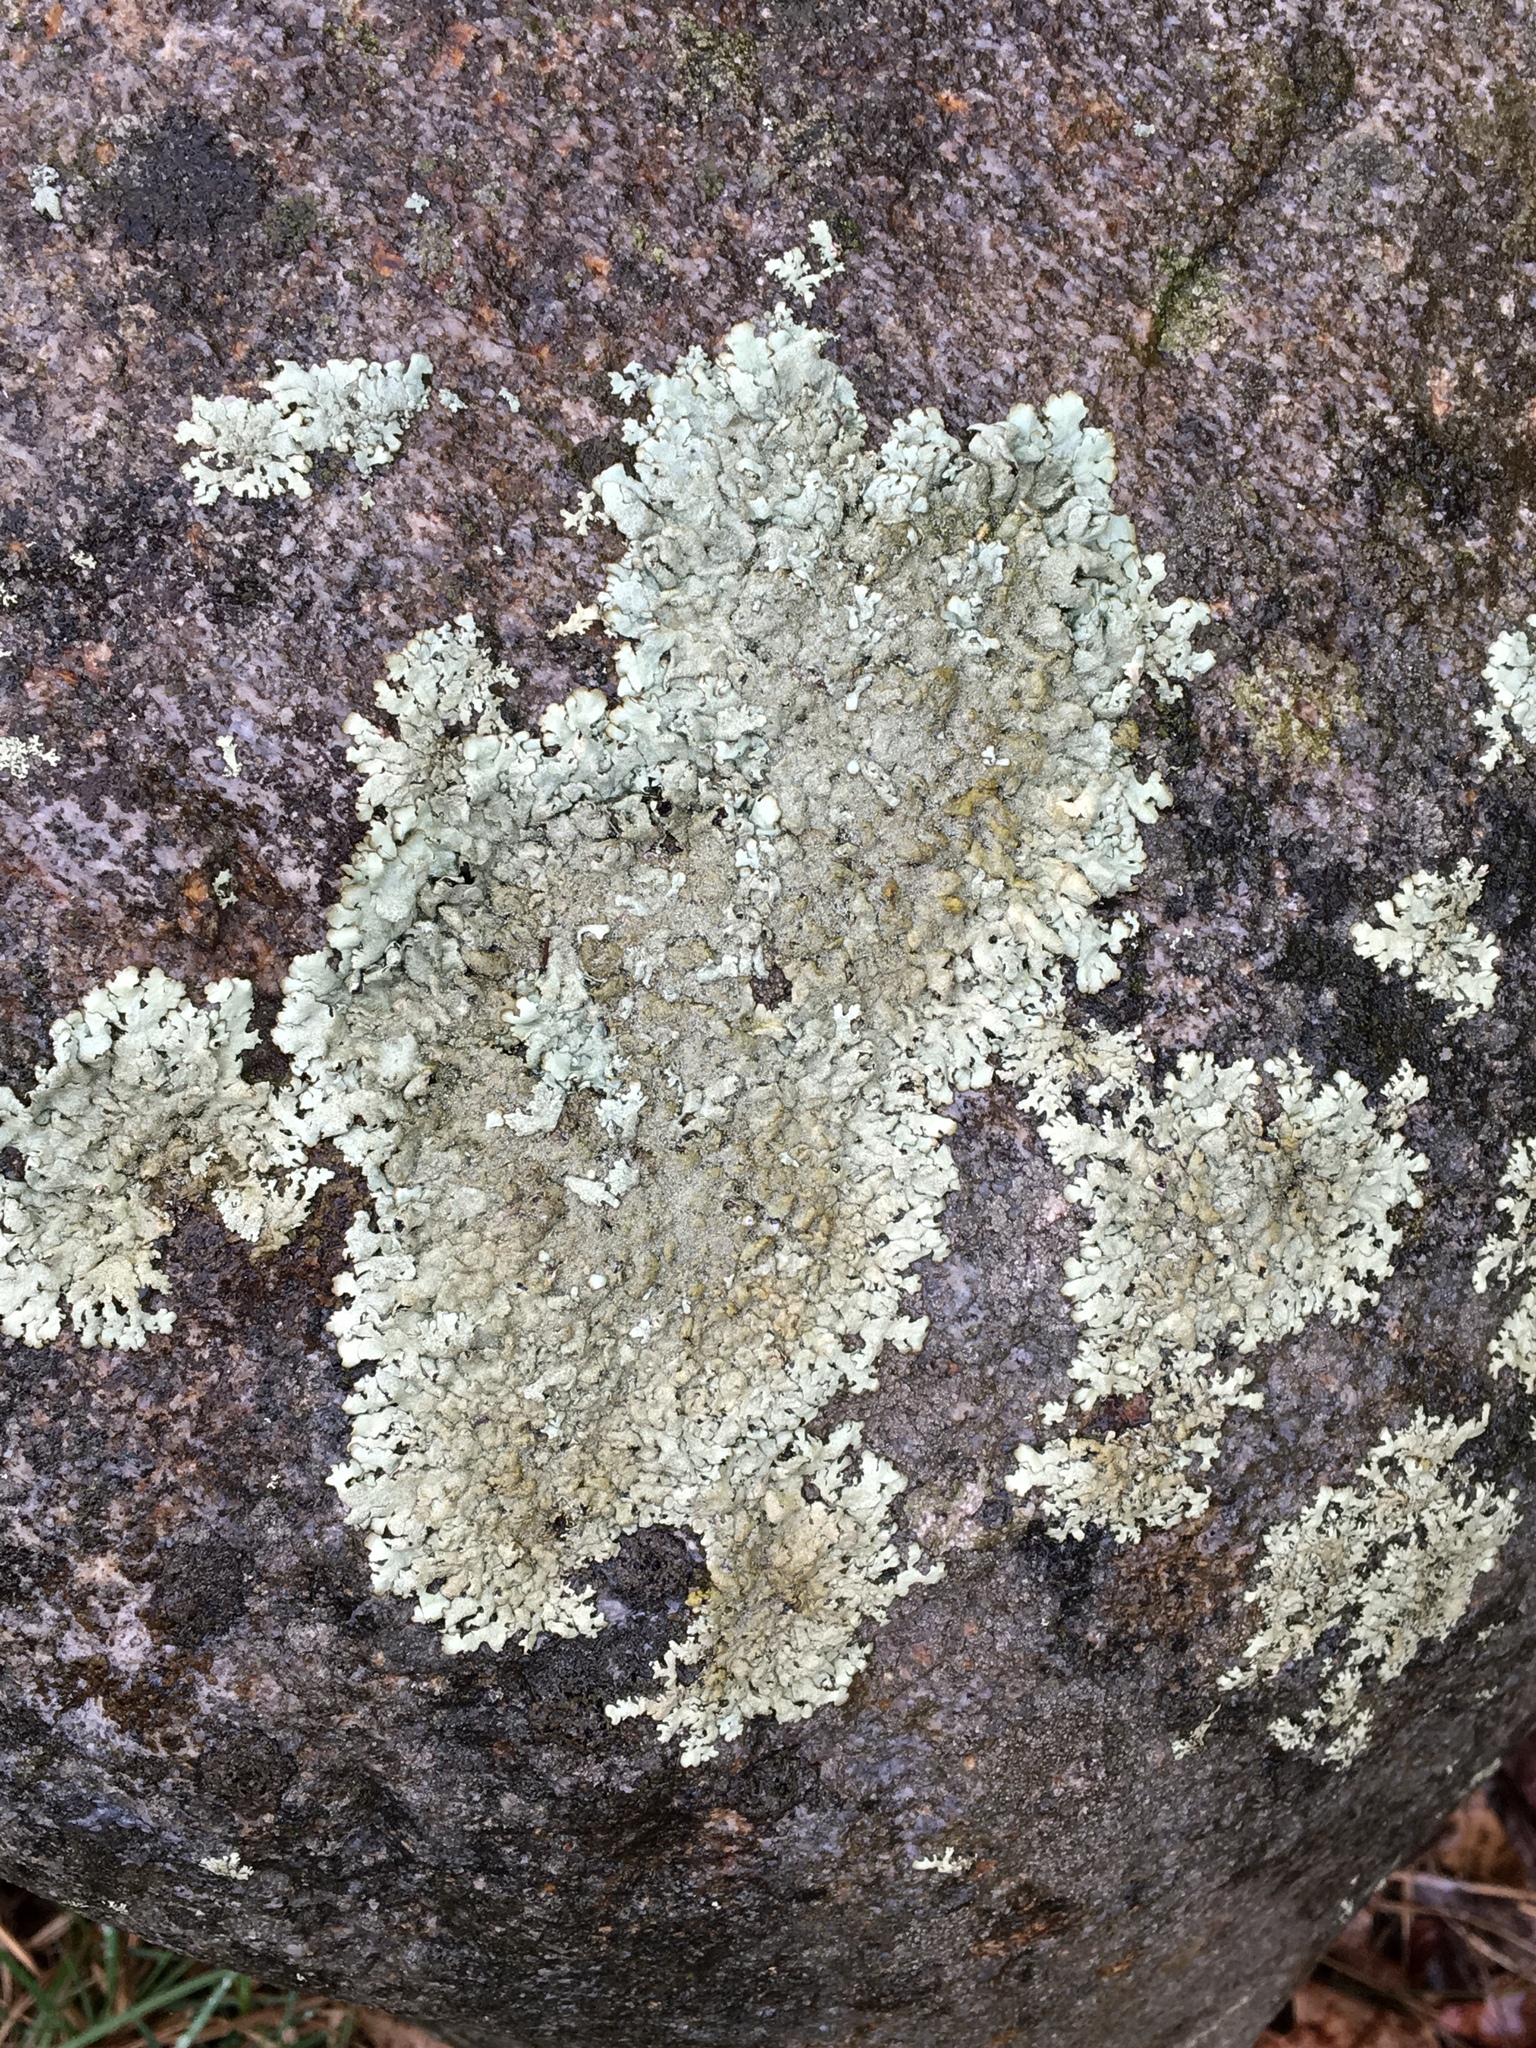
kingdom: Fungi
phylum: Ascomycota
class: Lecanoromycetes
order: Lecanorales
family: Parmeliaceae
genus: Flavoparmelia
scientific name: Flavoparmelia caperata
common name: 40-mile per hour lichen
